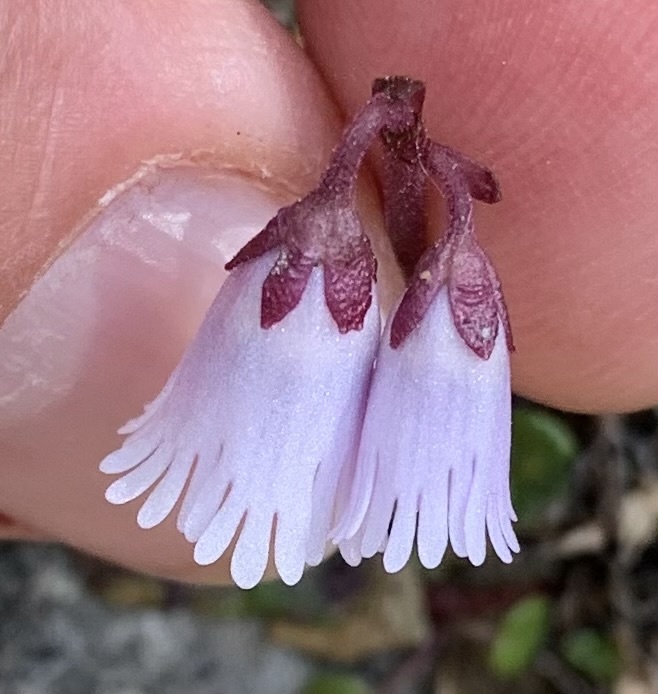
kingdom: Plantae
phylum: Tracheophyta
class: Magnoliopsida
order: Ericales
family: Primulaceae
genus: Soldanella
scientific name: Soldanella austriaca
